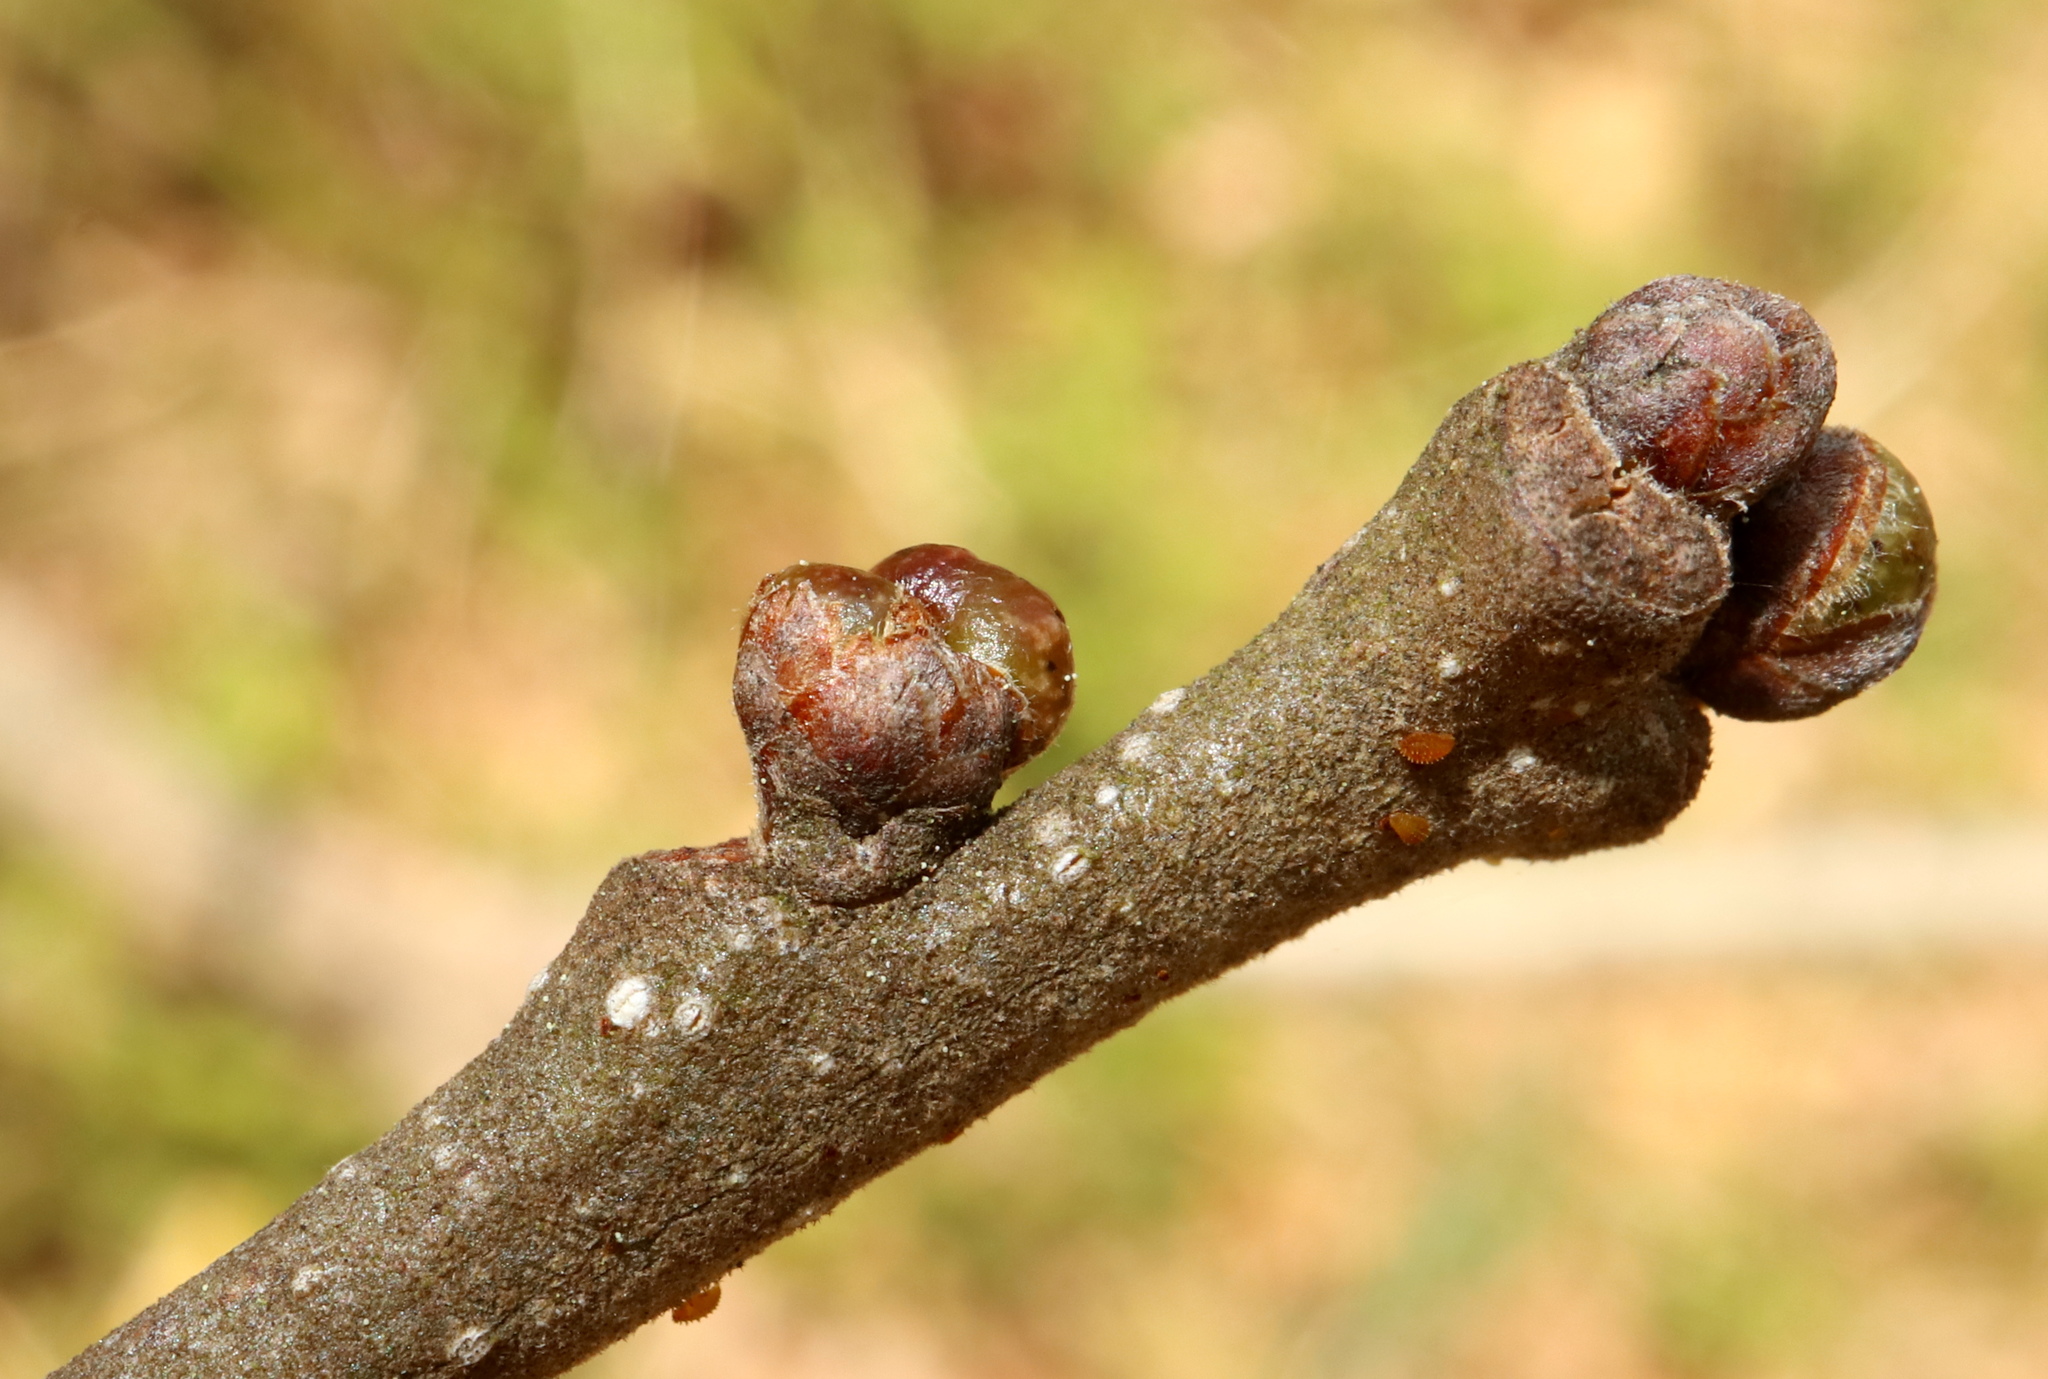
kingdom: Animalia
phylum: Arthropoda
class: Insecta
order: Hymenoptera
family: Cynipidae
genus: Andricus
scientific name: Andricus
